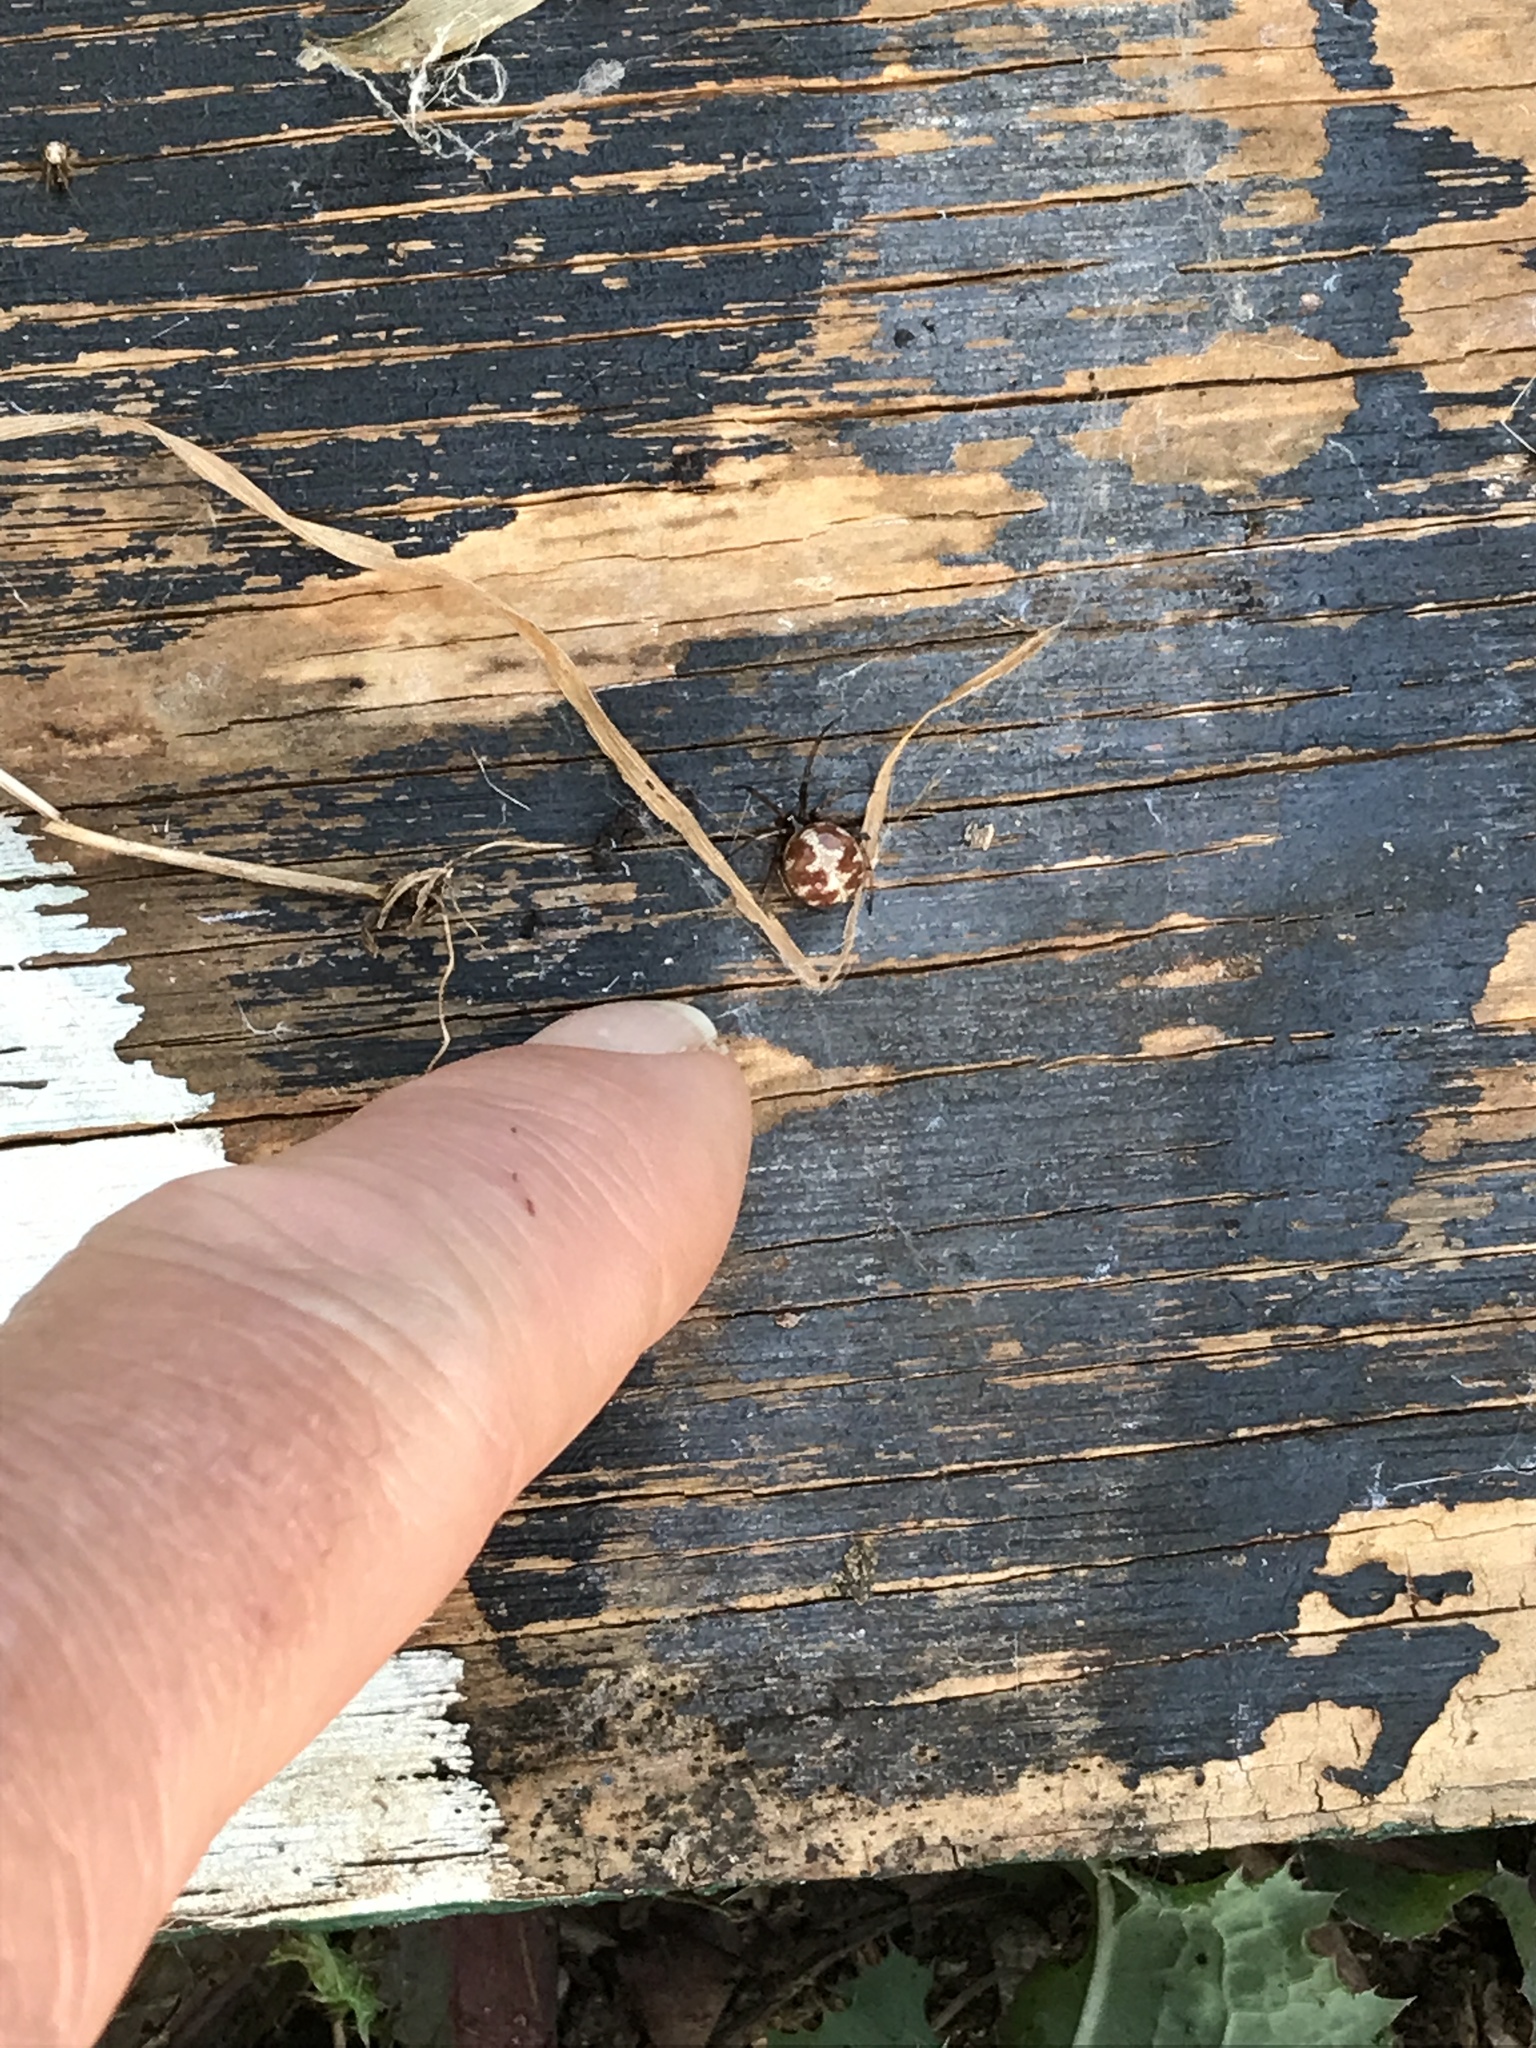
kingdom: Animalia
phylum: Arthropoda
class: Arachnida
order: Araneae
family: Theridiidae
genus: Steatoda
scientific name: Steatoda triangulosa
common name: Triangulate bud spider
